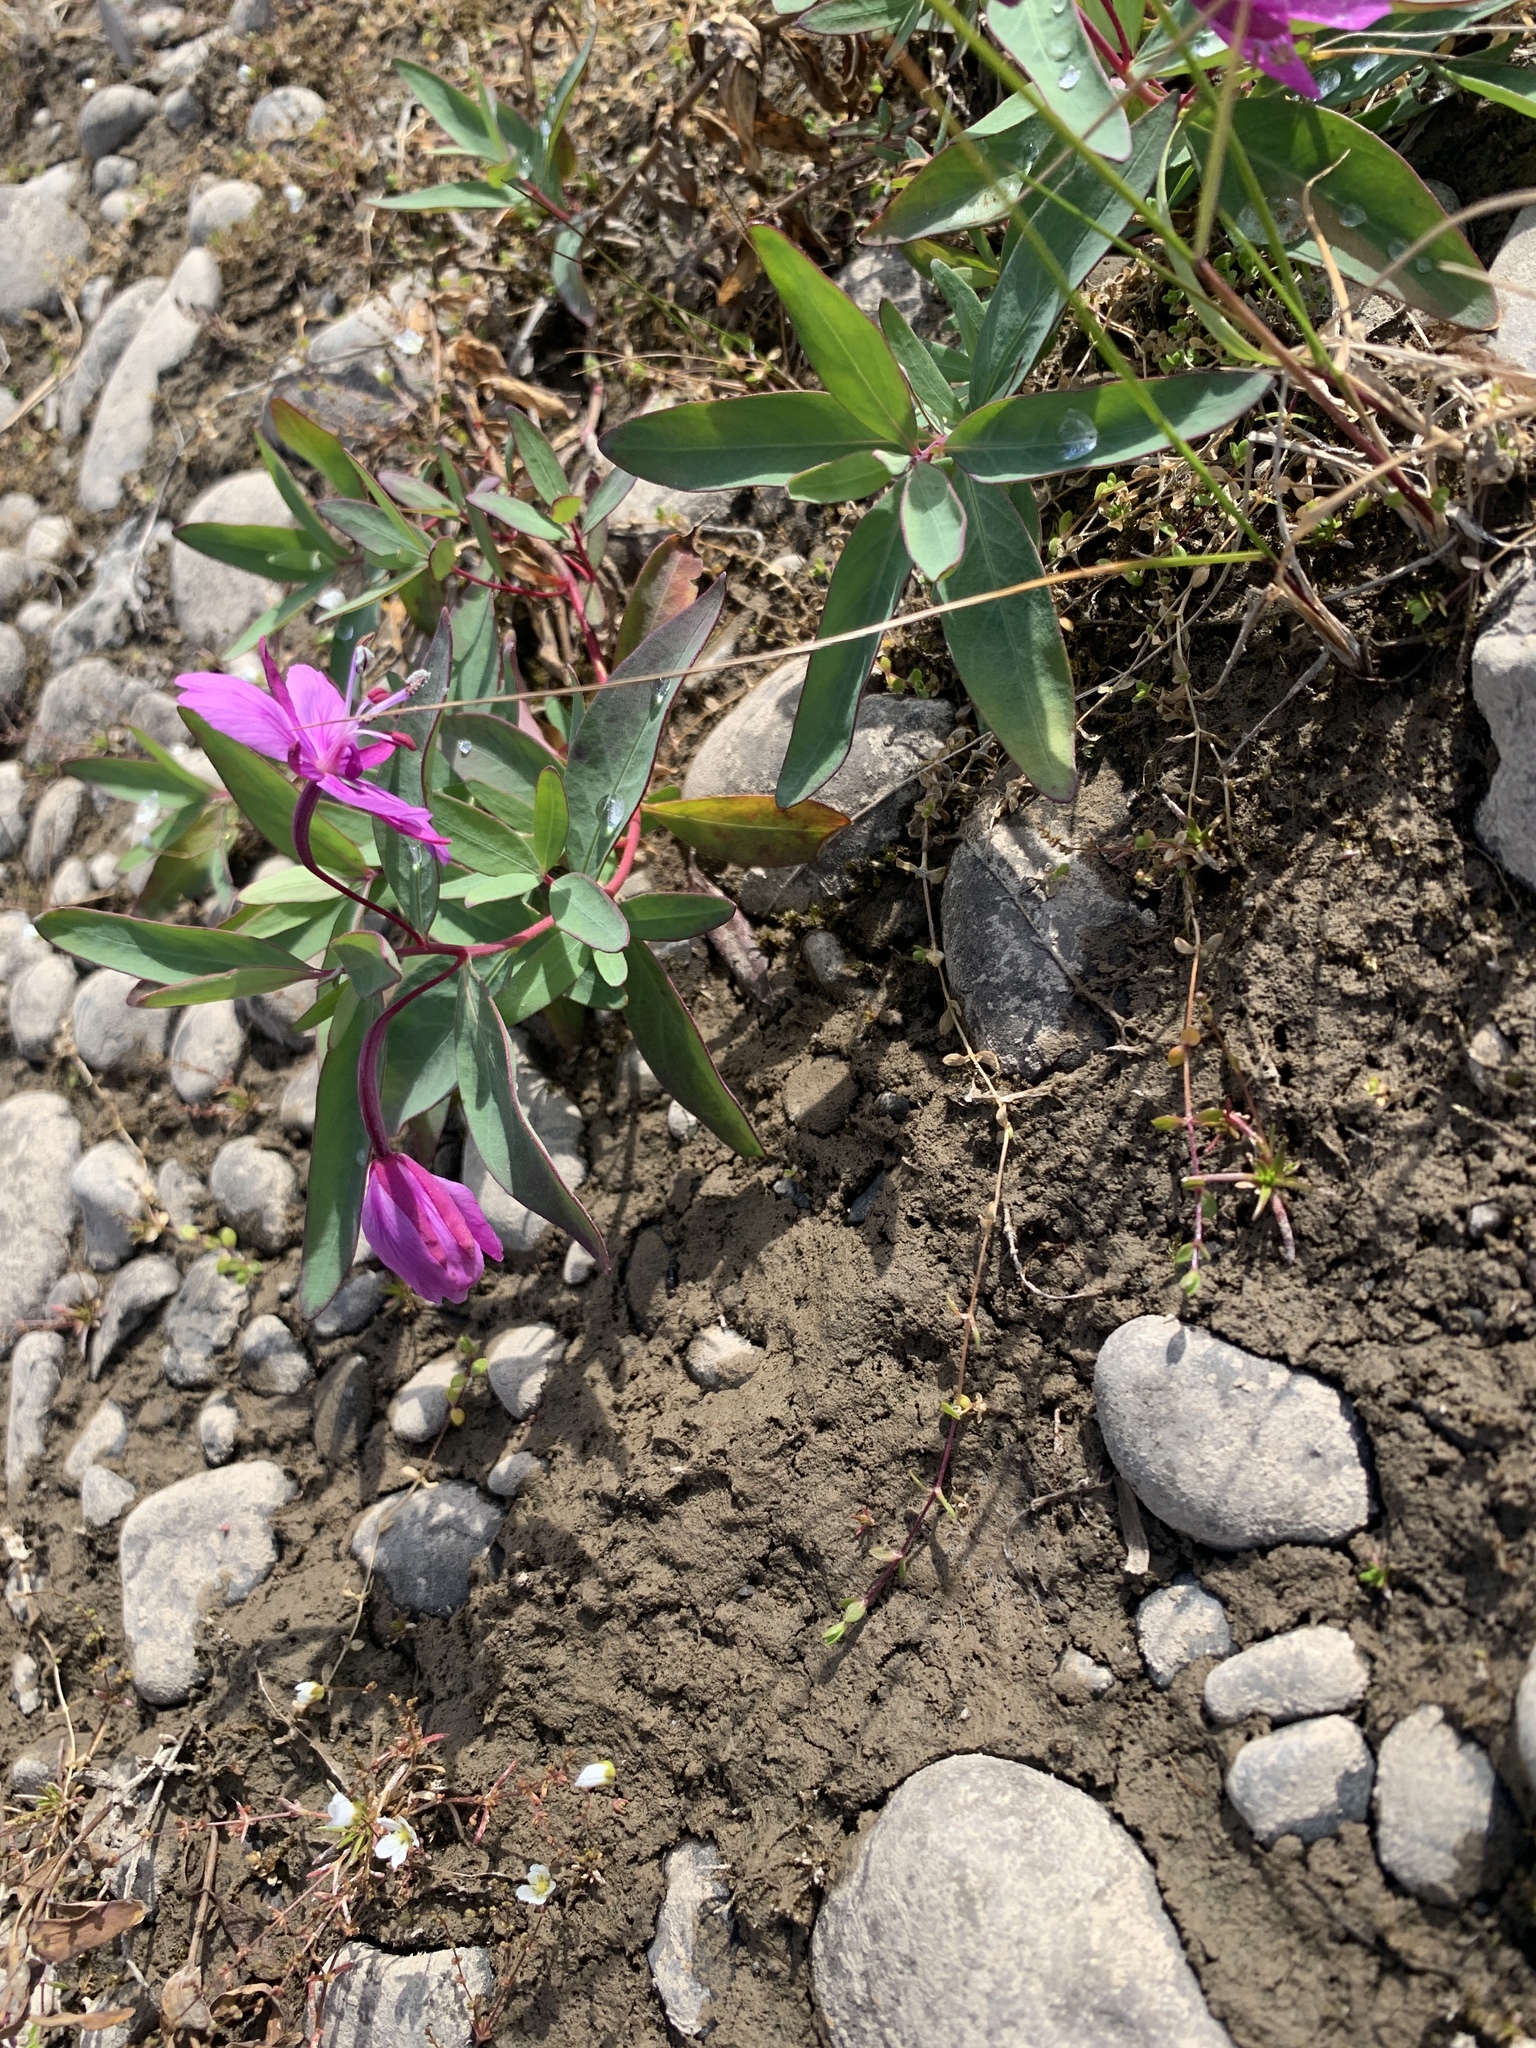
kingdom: Plantae
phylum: Tracheophyta
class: Magnoliopsida
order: Myrtales
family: Onagraceae
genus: Chamaenerion
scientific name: Chamaenerion latifolium
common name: Dwarf fireweed
